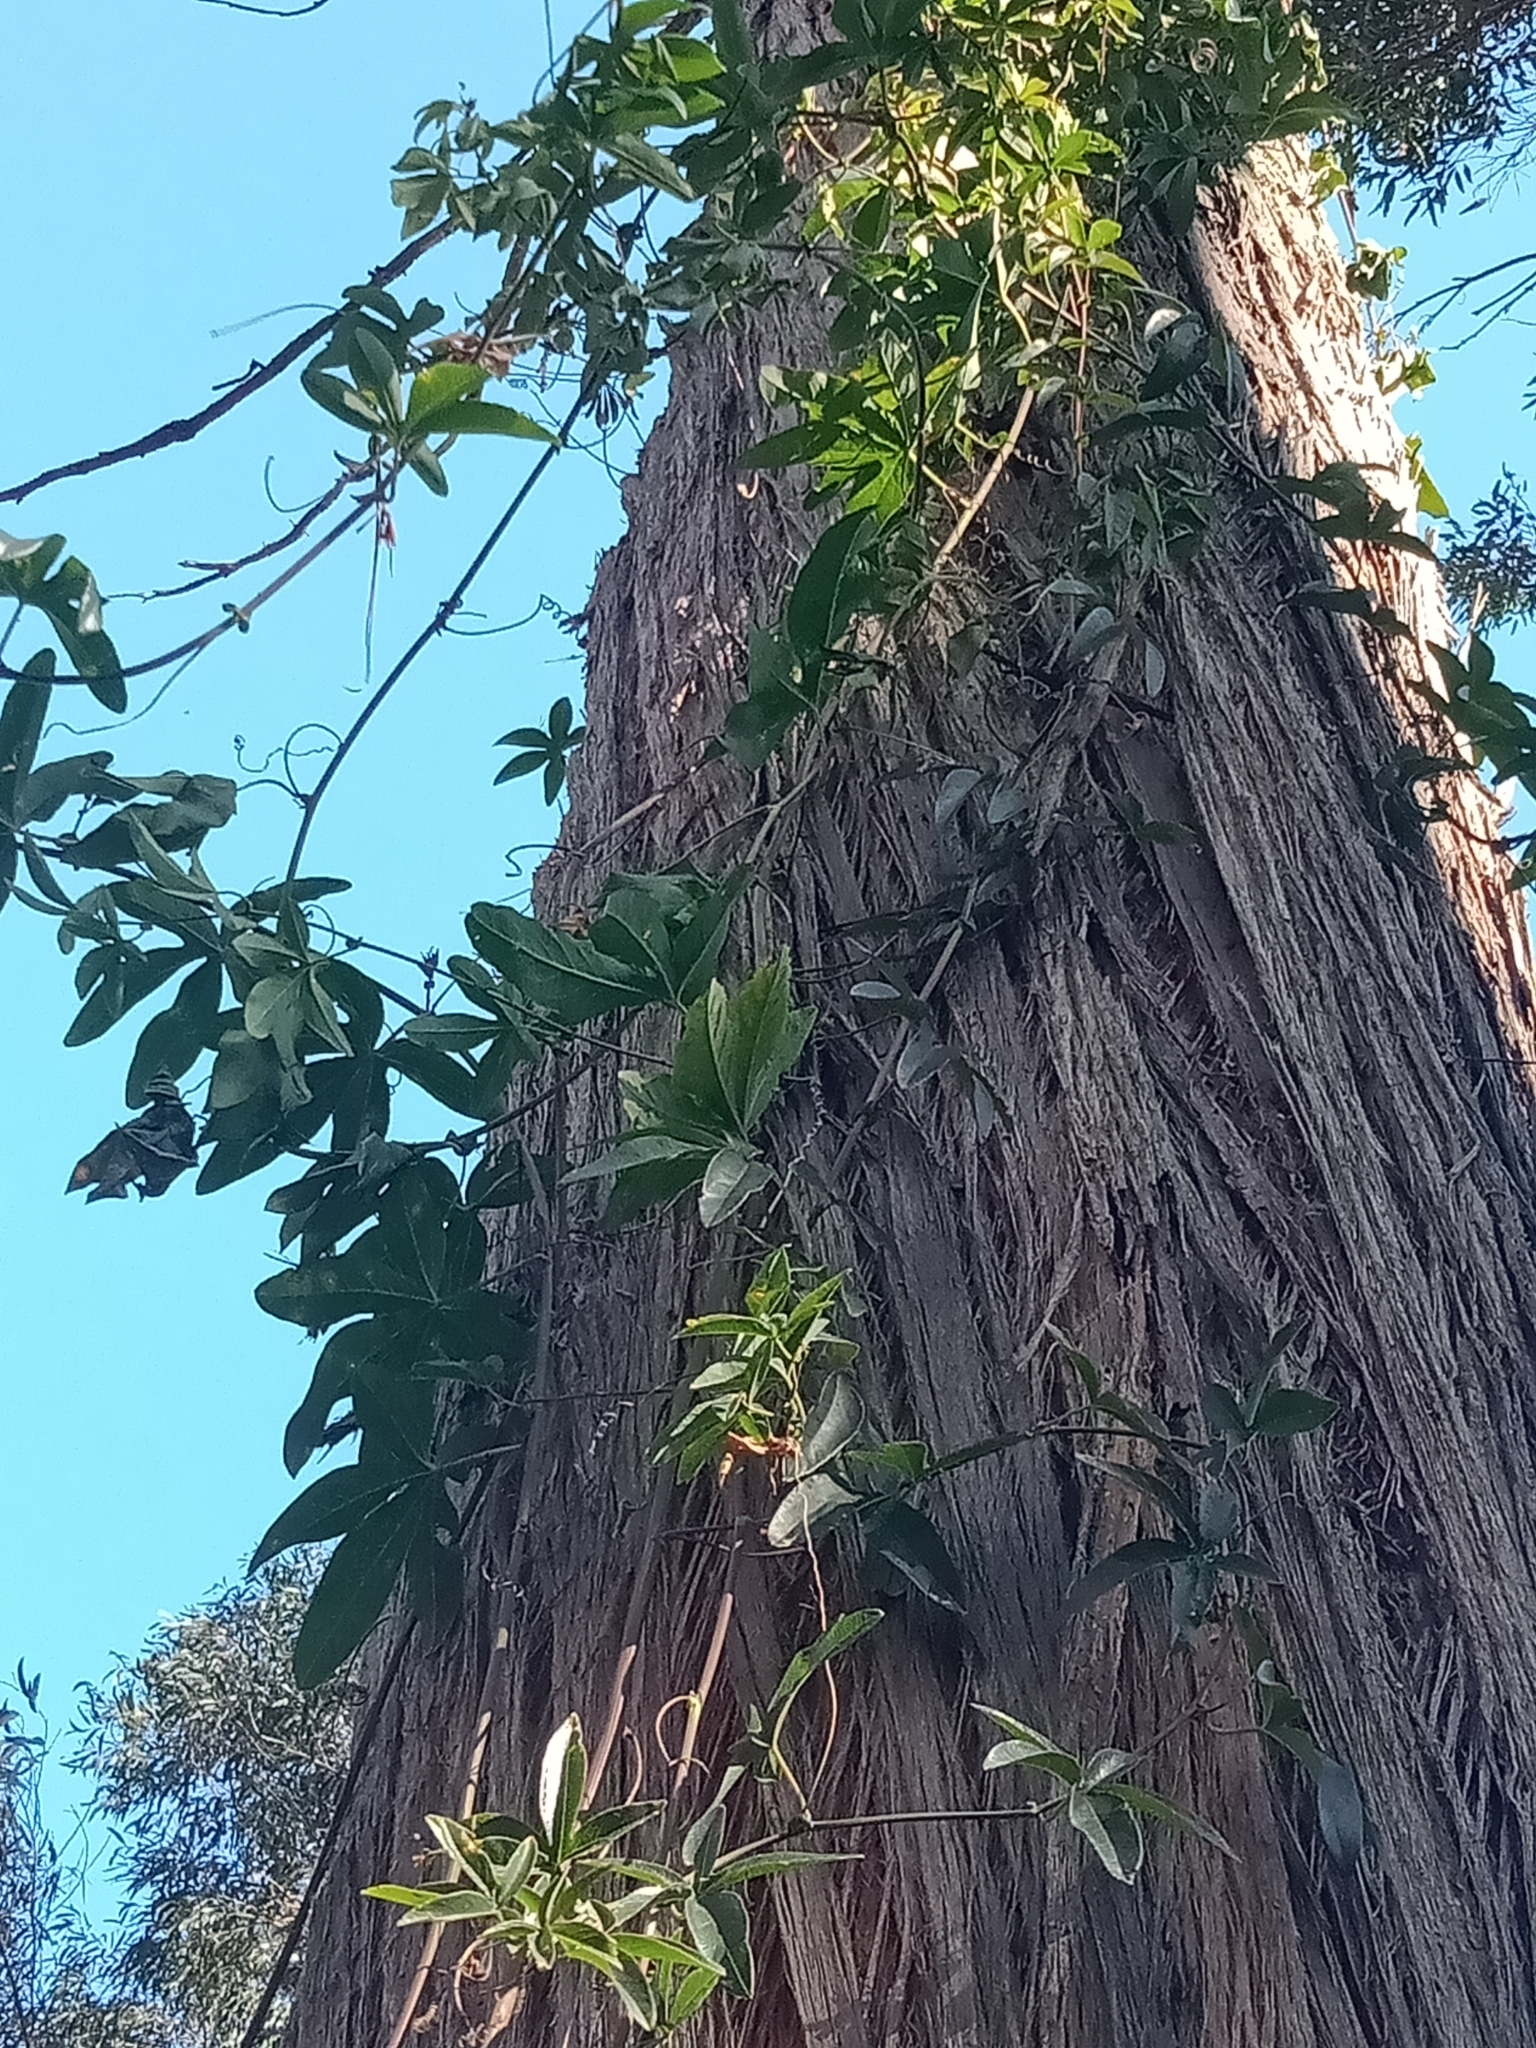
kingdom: Plantae
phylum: Tracheophyta
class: Magnoliopsida
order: Malpighiales
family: Passifloraceae
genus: Passiflora
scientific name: Passiflora caerulea
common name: Blue passionflower
